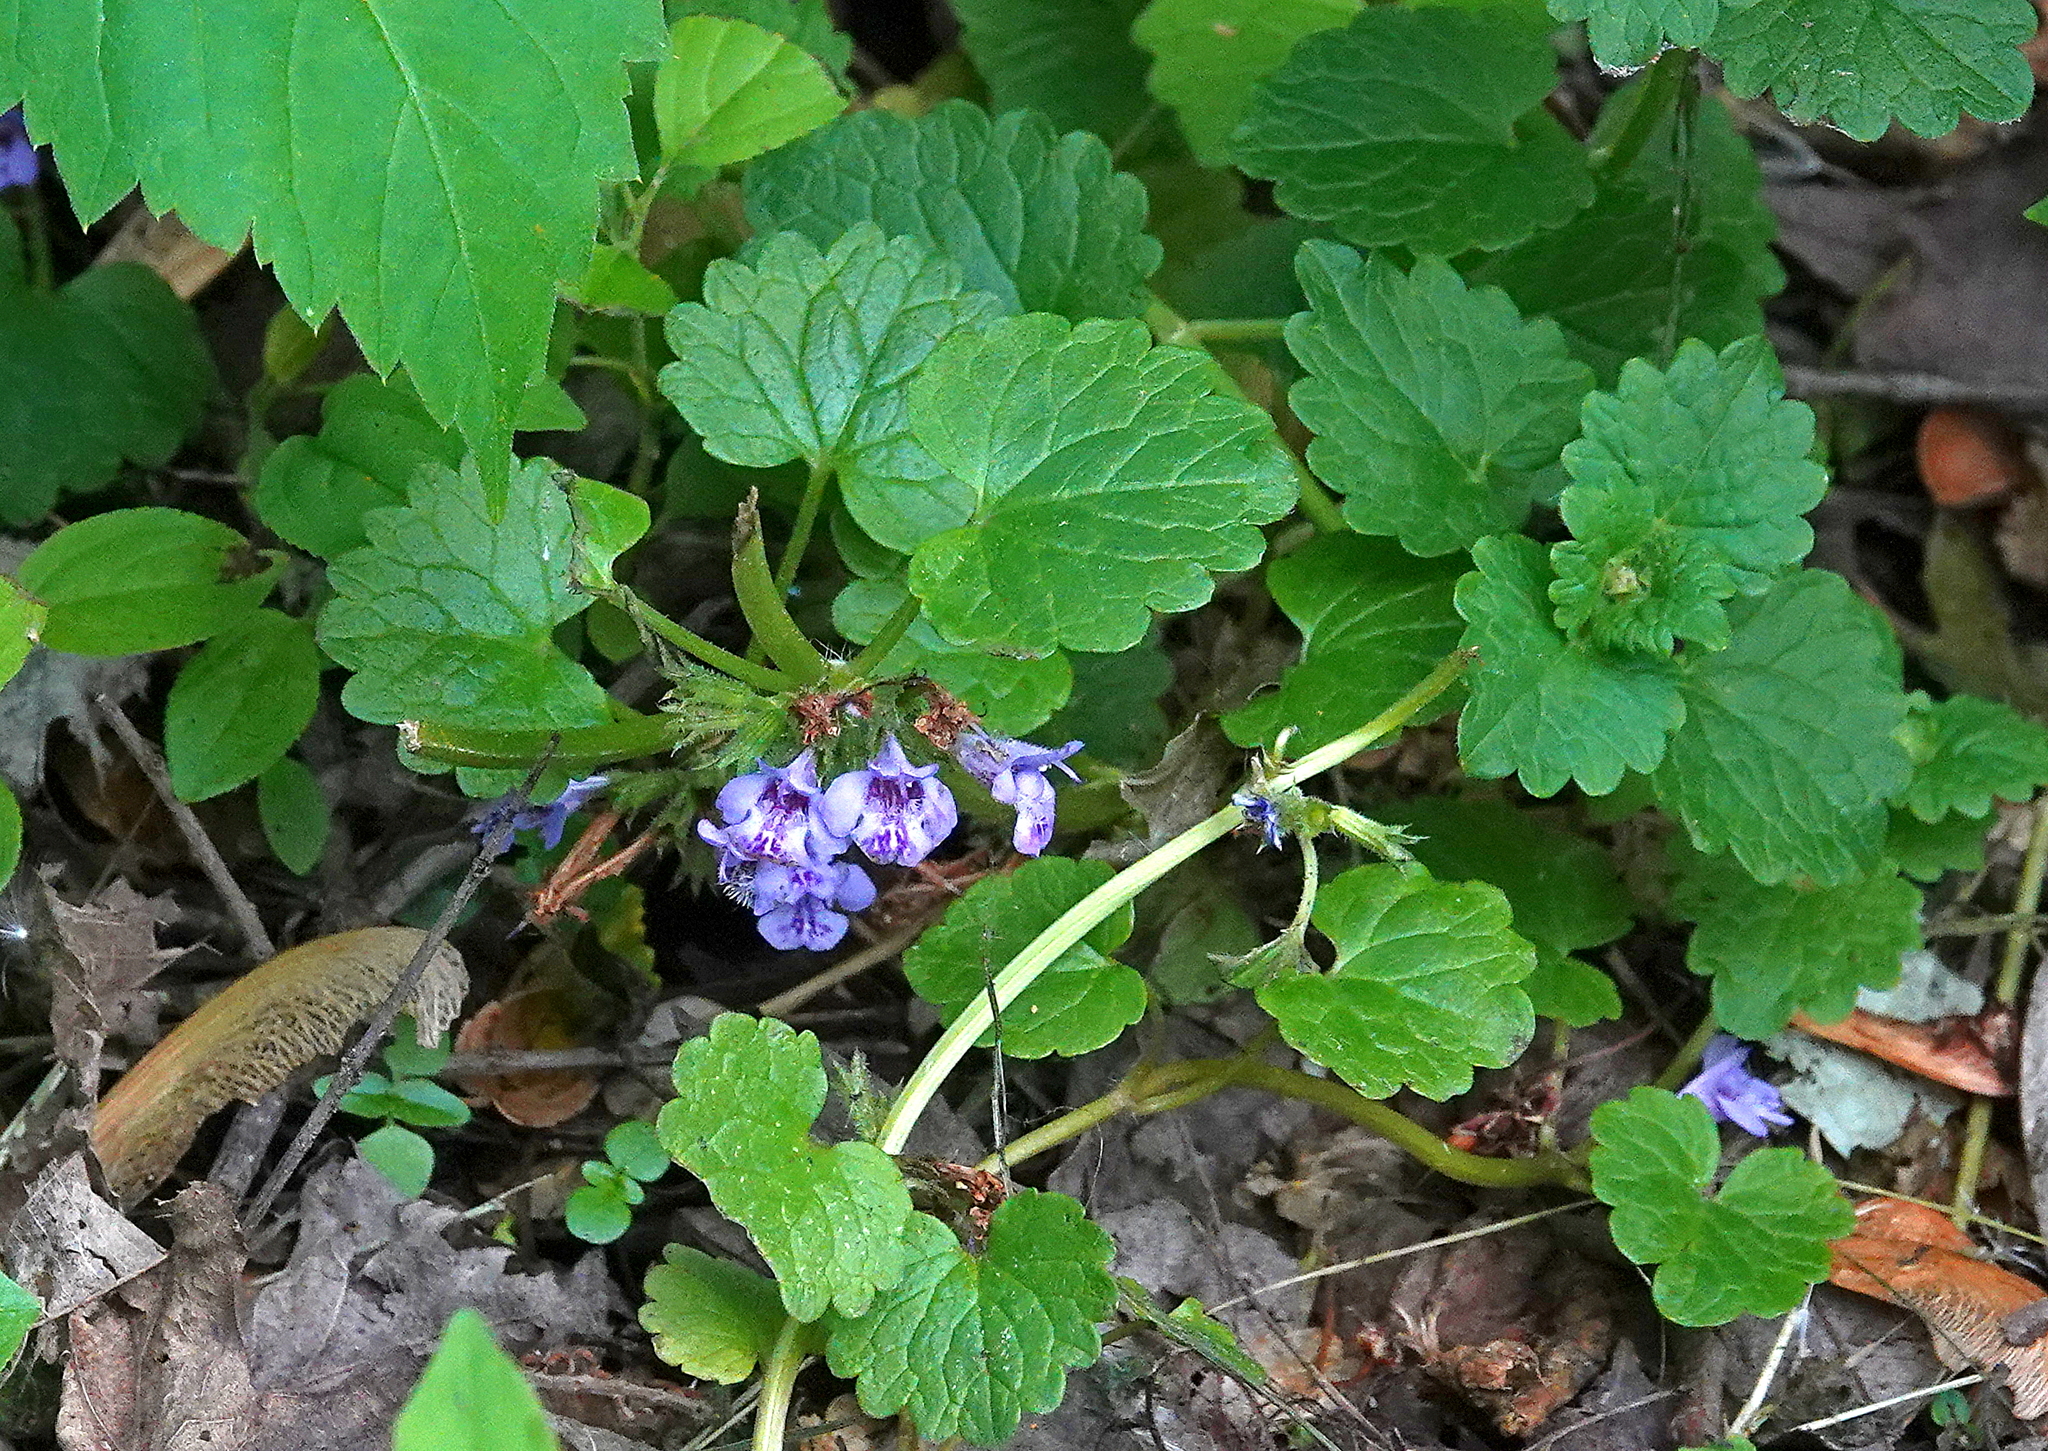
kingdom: Plantae
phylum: Tracheophyta
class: Magnoliopsida
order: Lamiales
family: Lamiaceae
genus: Glechoma
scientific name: Glechoma hederacea
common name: Ground ivy
